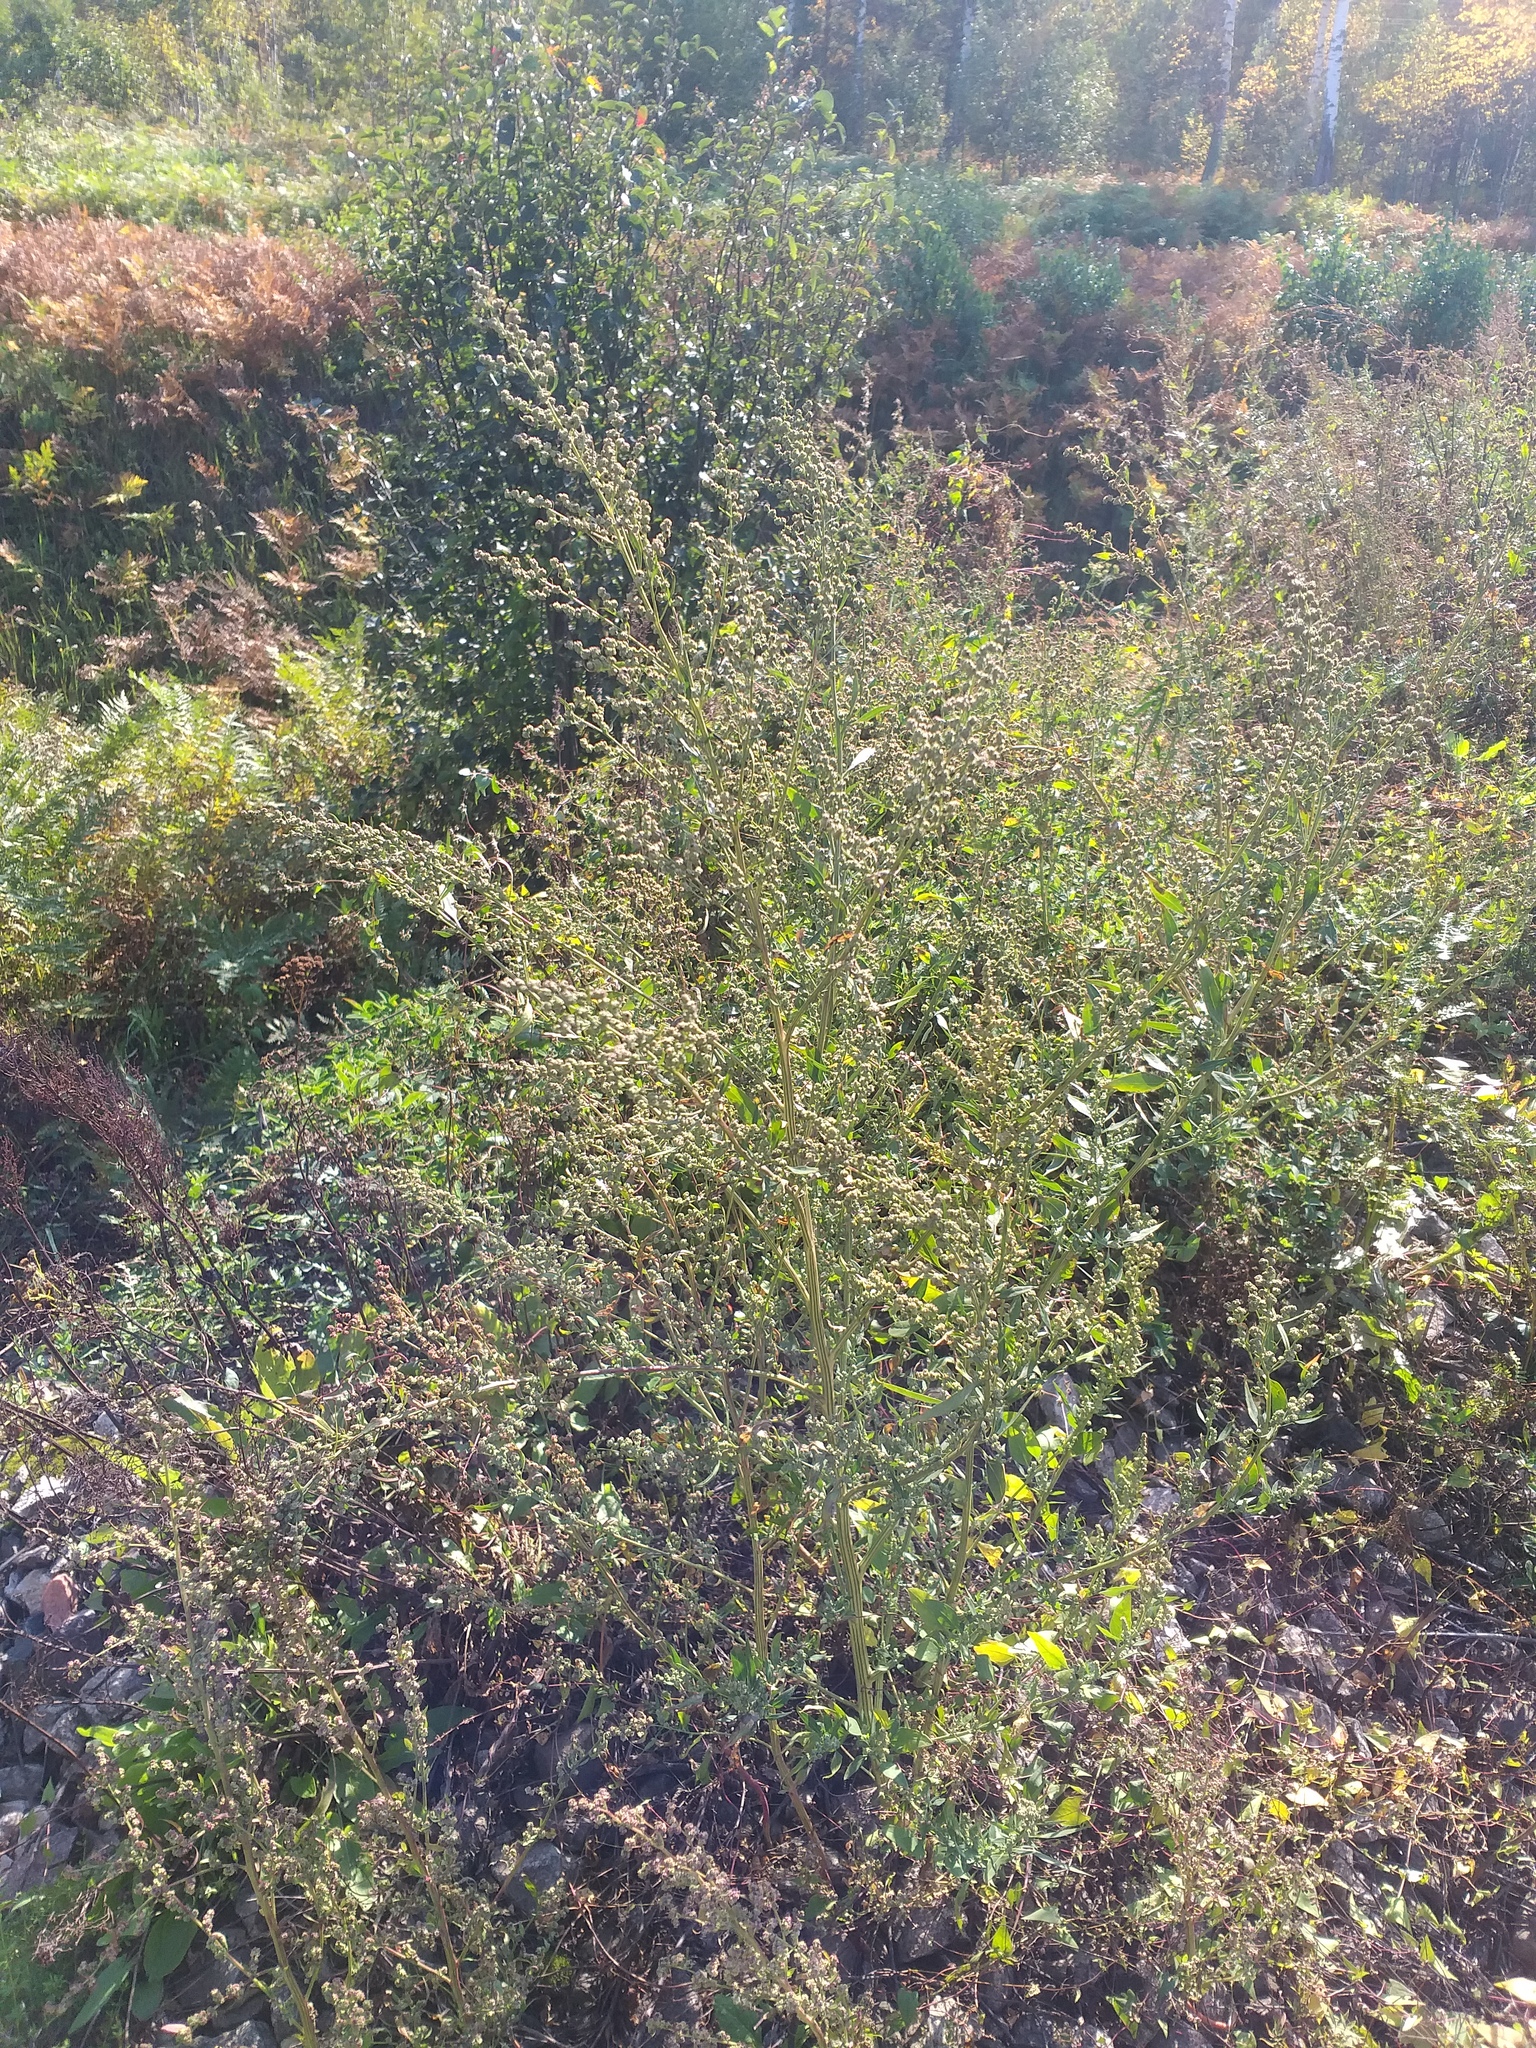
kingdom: Plantae
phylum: Tracheophyta
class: Magnoliopsida
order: Caryophyllales
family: Amaranthaceae
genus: Chenopodium
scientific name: Chenopodium album
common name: Fat-hen
